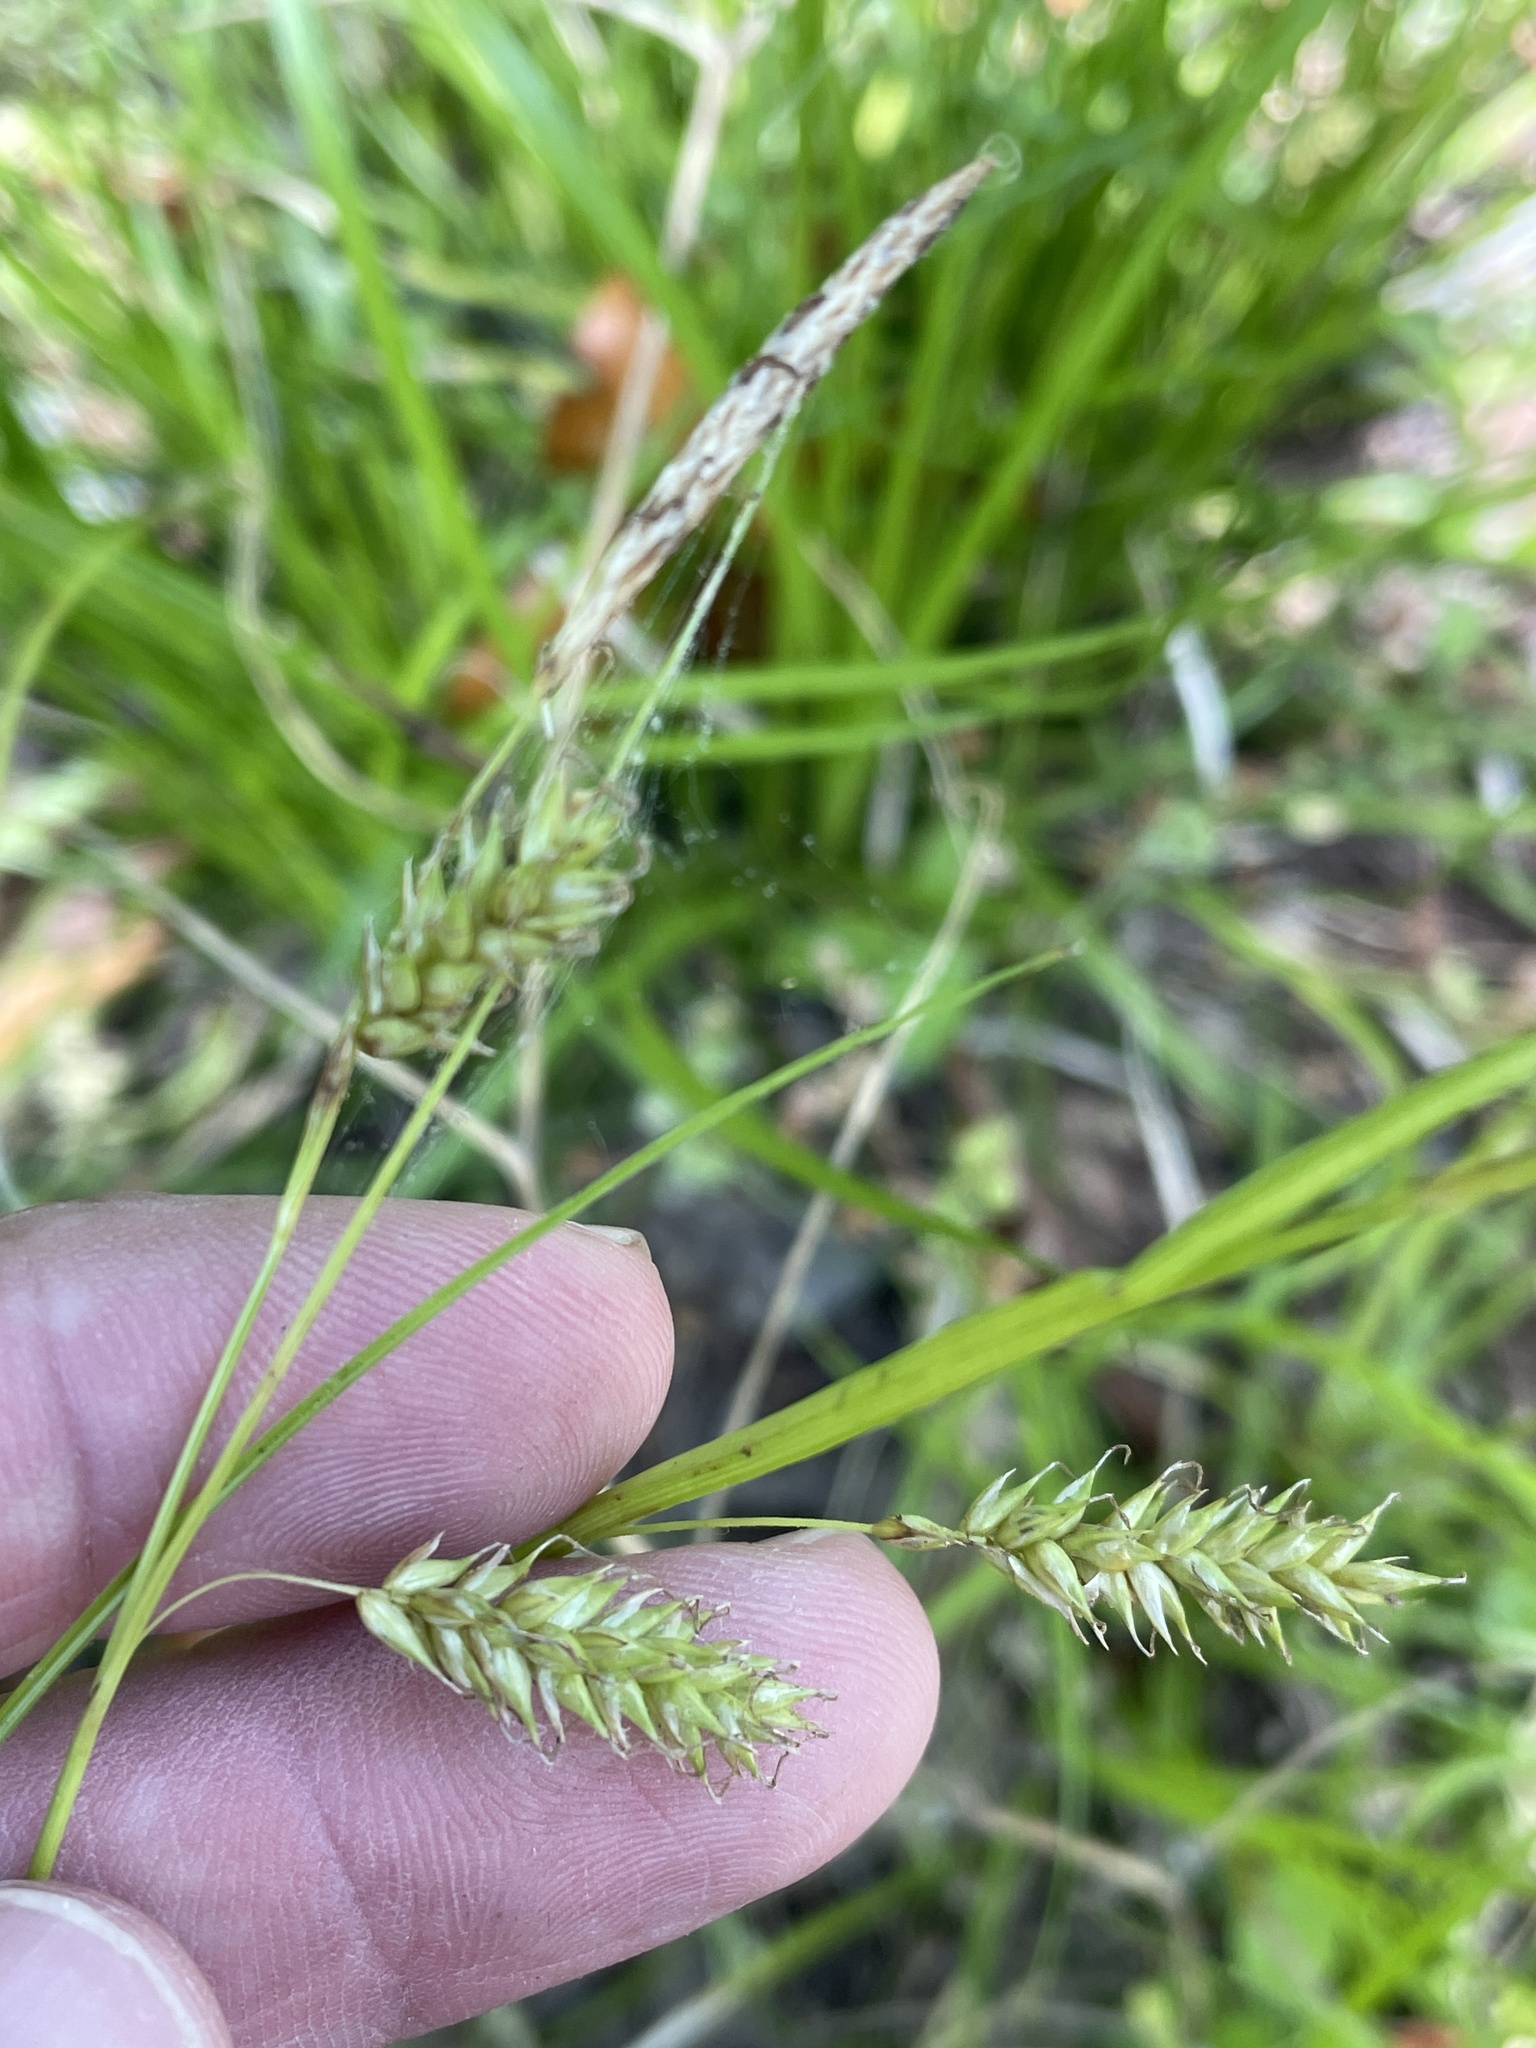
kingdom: Plantae
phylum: Tracheophyta
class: Liliopsida
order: Poales
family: Cyperaceae
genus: Carex
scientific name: Carex cherokeensis
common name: Cherokee sedge
